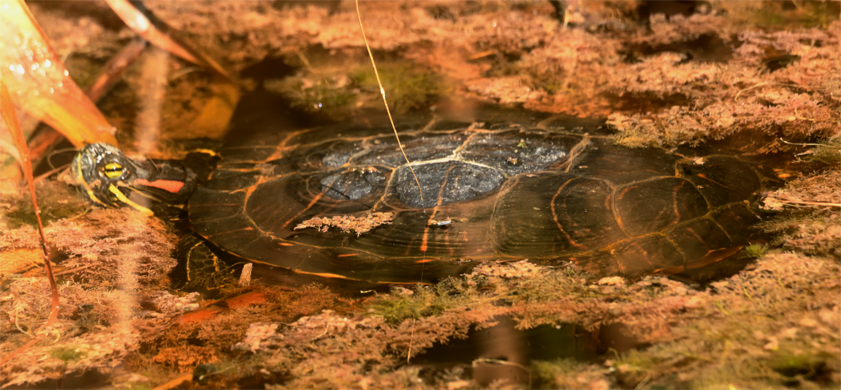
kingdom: Animalia
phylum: Chordata
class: Testudines
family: Emydidae
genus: Trachemys
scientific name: Trachemys scripta
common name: Slider
